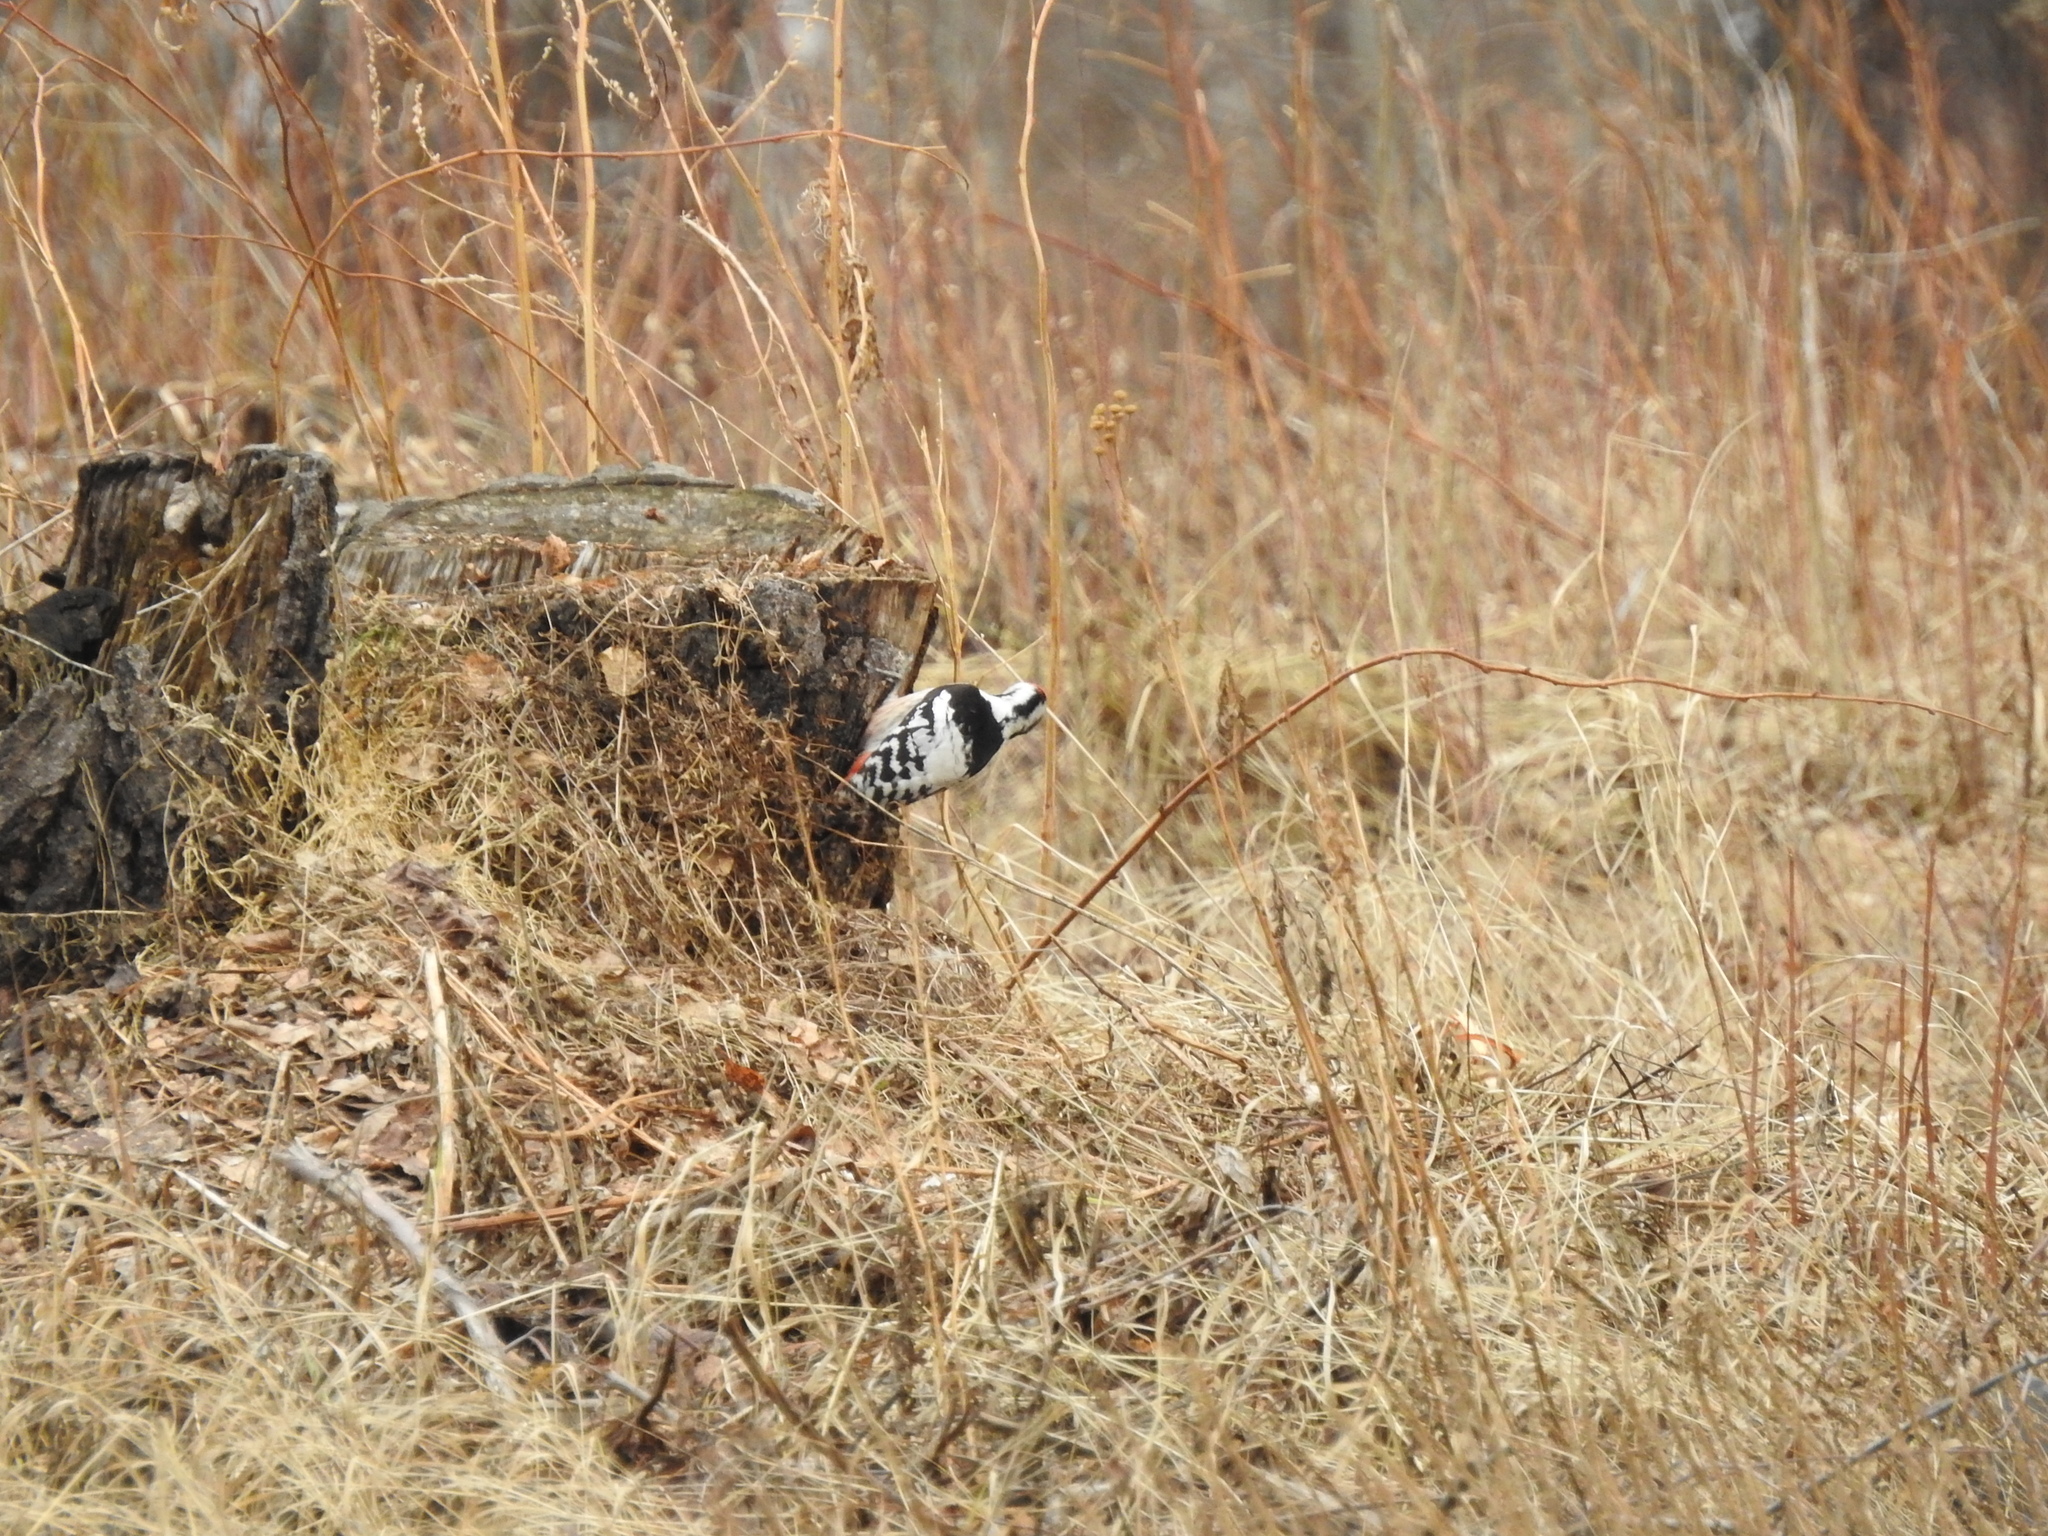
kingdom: Animalia
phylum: Chordata
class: Aves
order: Piciformes
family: Picidae
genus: Dendrocopos
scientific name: Dendrocopos leucotos
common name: White-backed woodpecker
